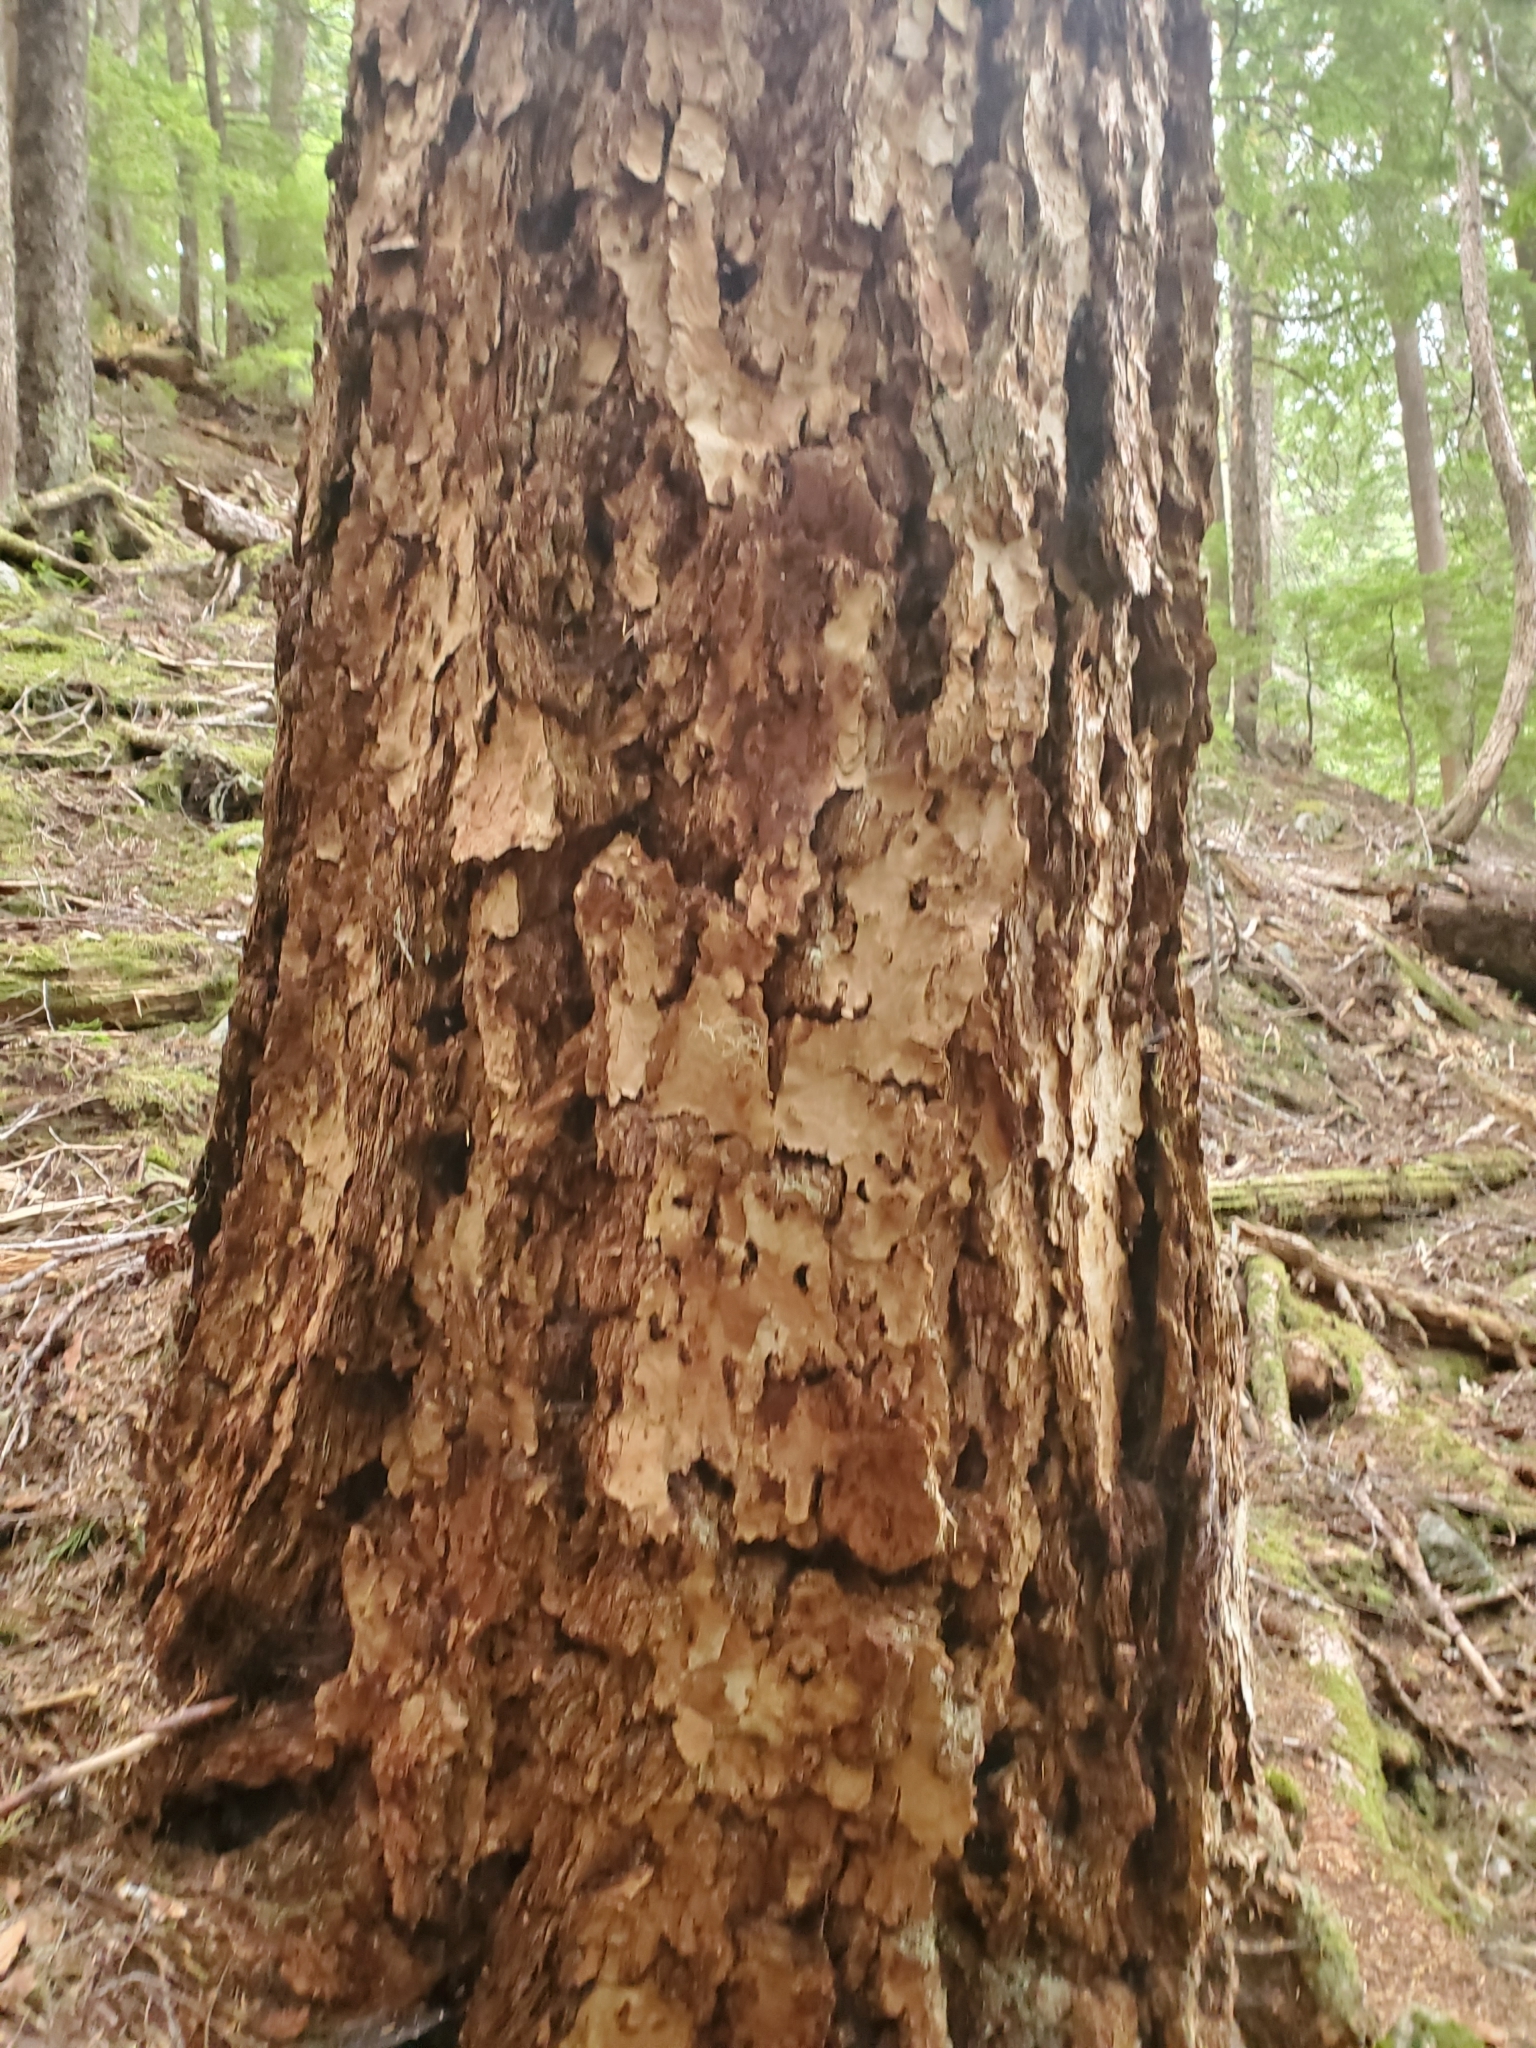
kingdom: Plantae
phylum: Tracheophyta
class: Pinopsida
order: Pinales
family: Pinaceae
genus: Pseudotsuga
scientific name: Pseudotsuga menziesii
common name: Douglas fir
